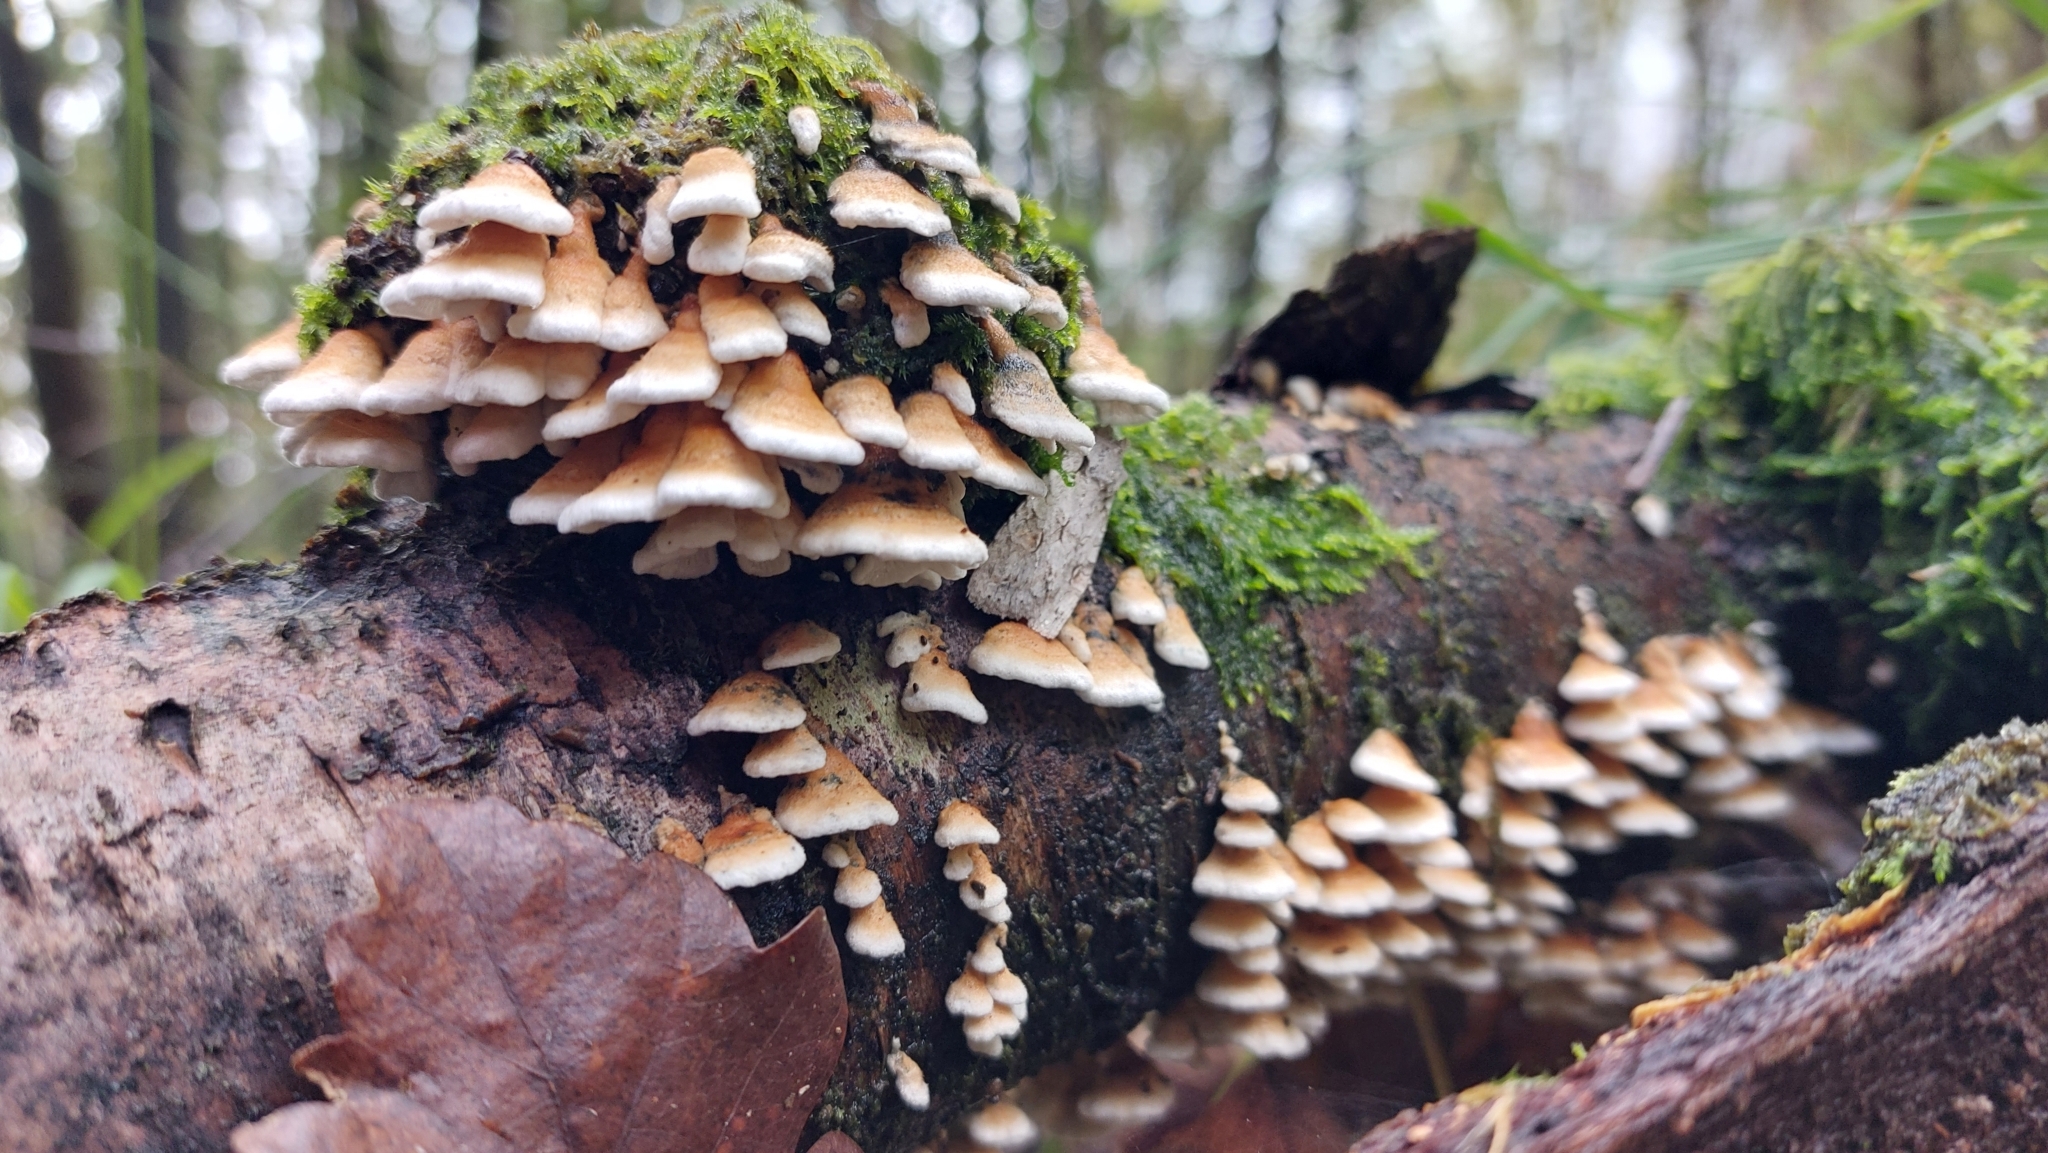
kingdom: Animalia
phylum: Arthropoda
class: Insecta
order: Lepidoptera
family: Noctuidae
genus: Lithophane
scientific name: Lithophane ornitopus
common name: Grey shoulder-knot
